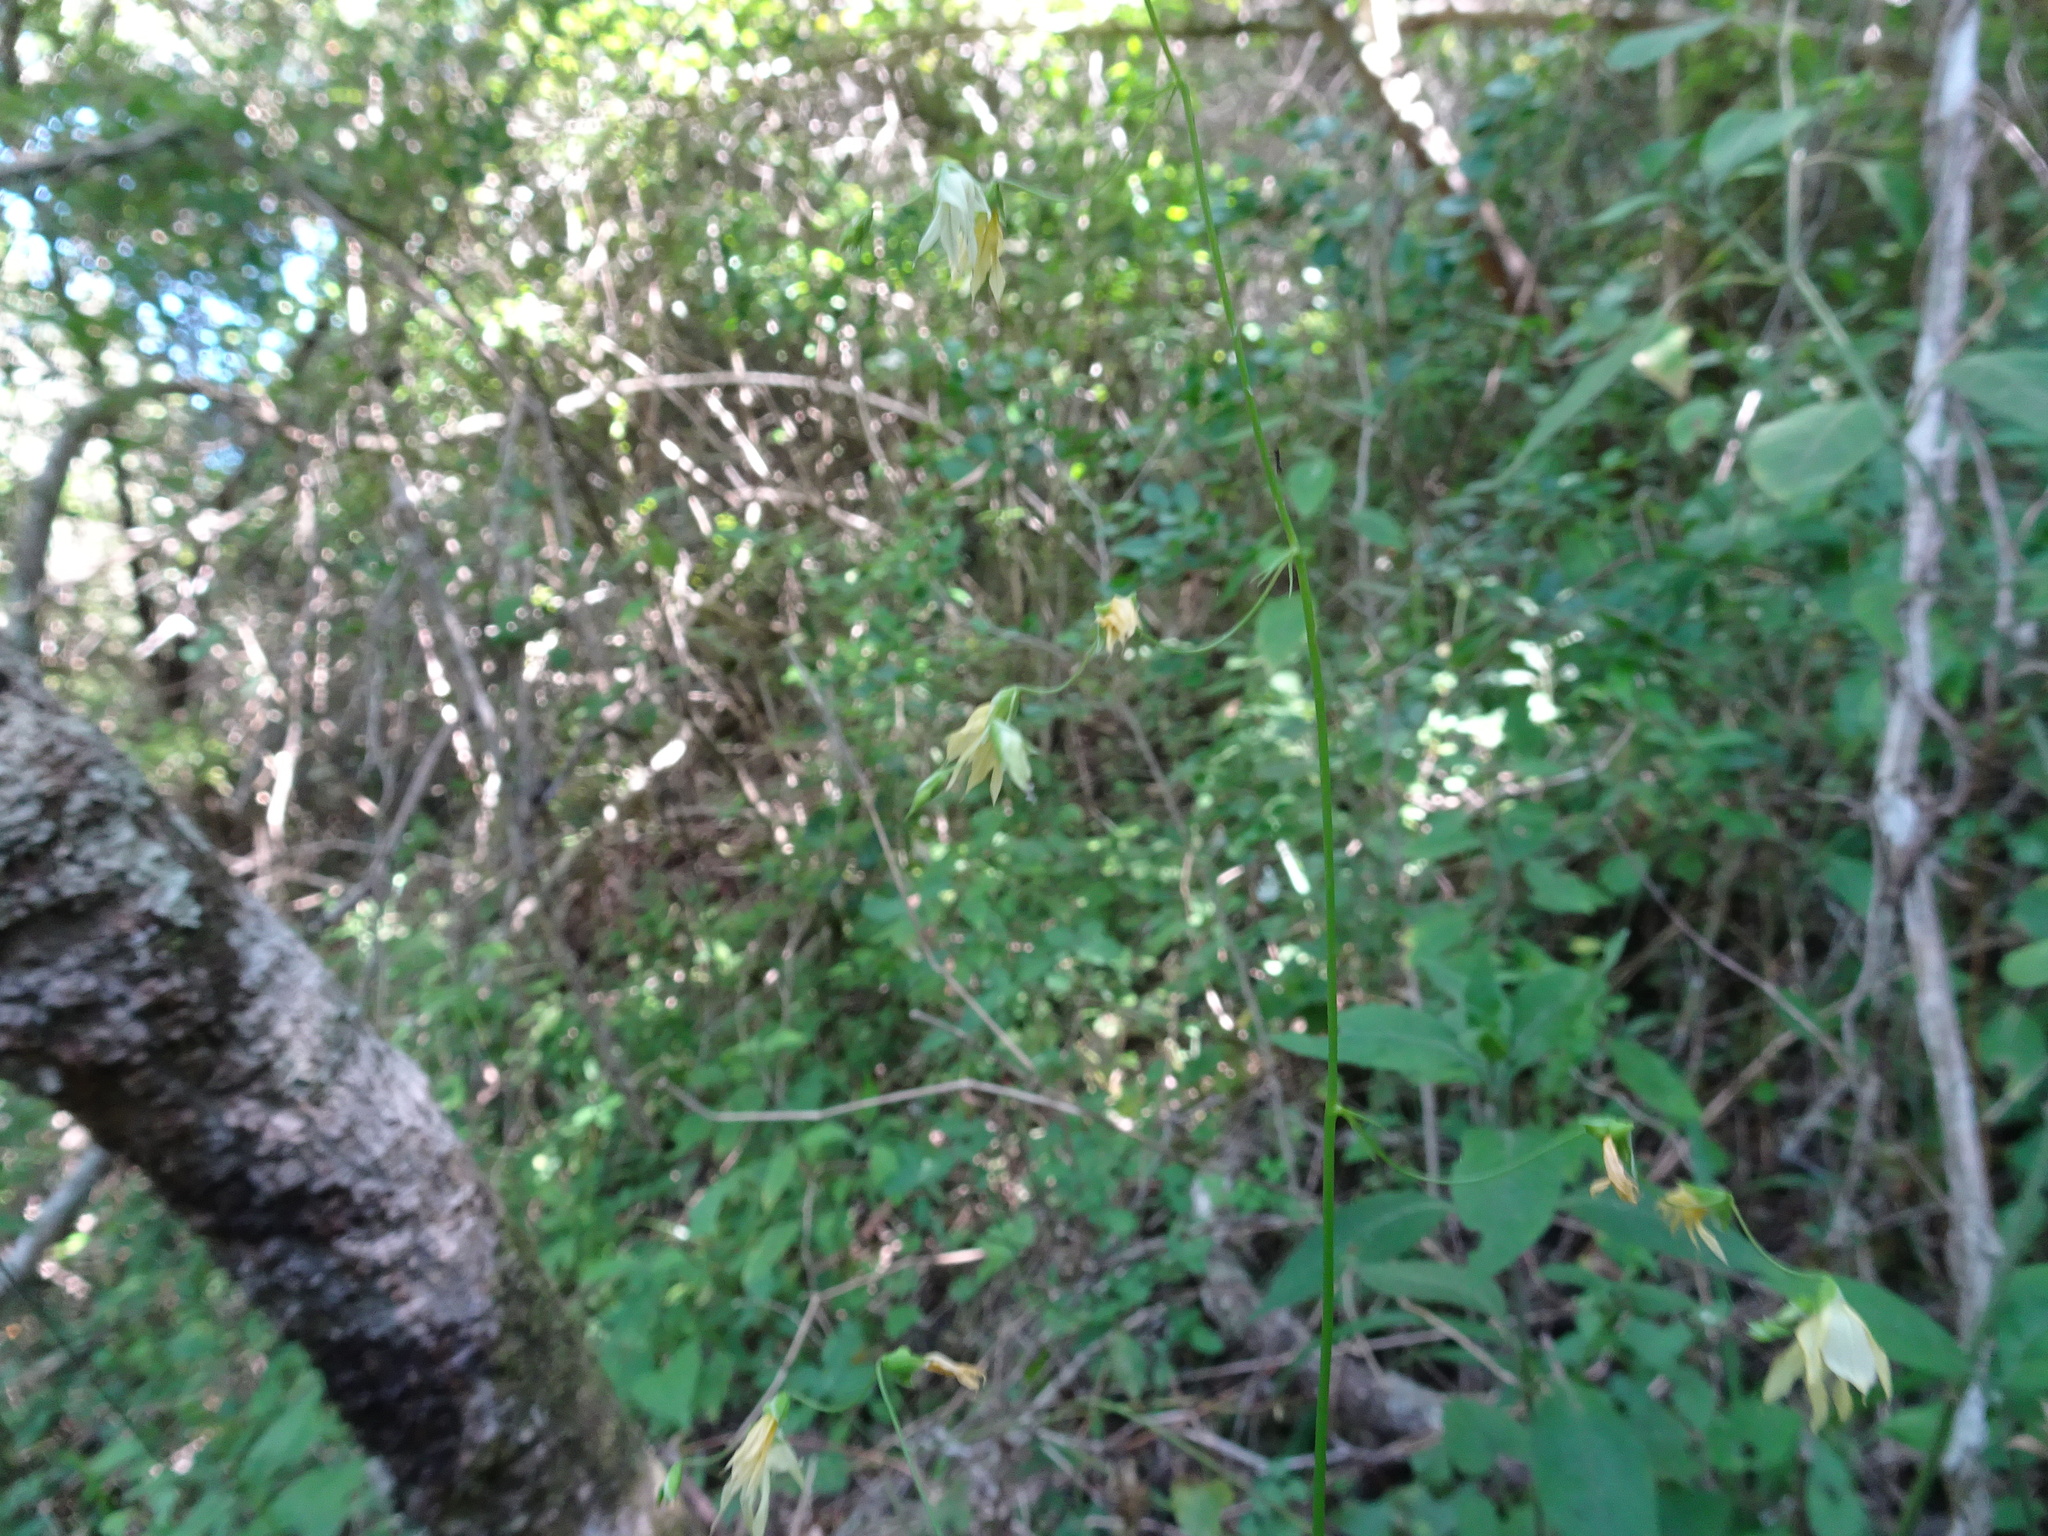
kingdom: Plantae
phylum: Tracheophyta
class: Liliopsida
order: Asparagales
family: Iridaceae
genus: Melasphaerula
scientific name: Melasphaerula graminea
